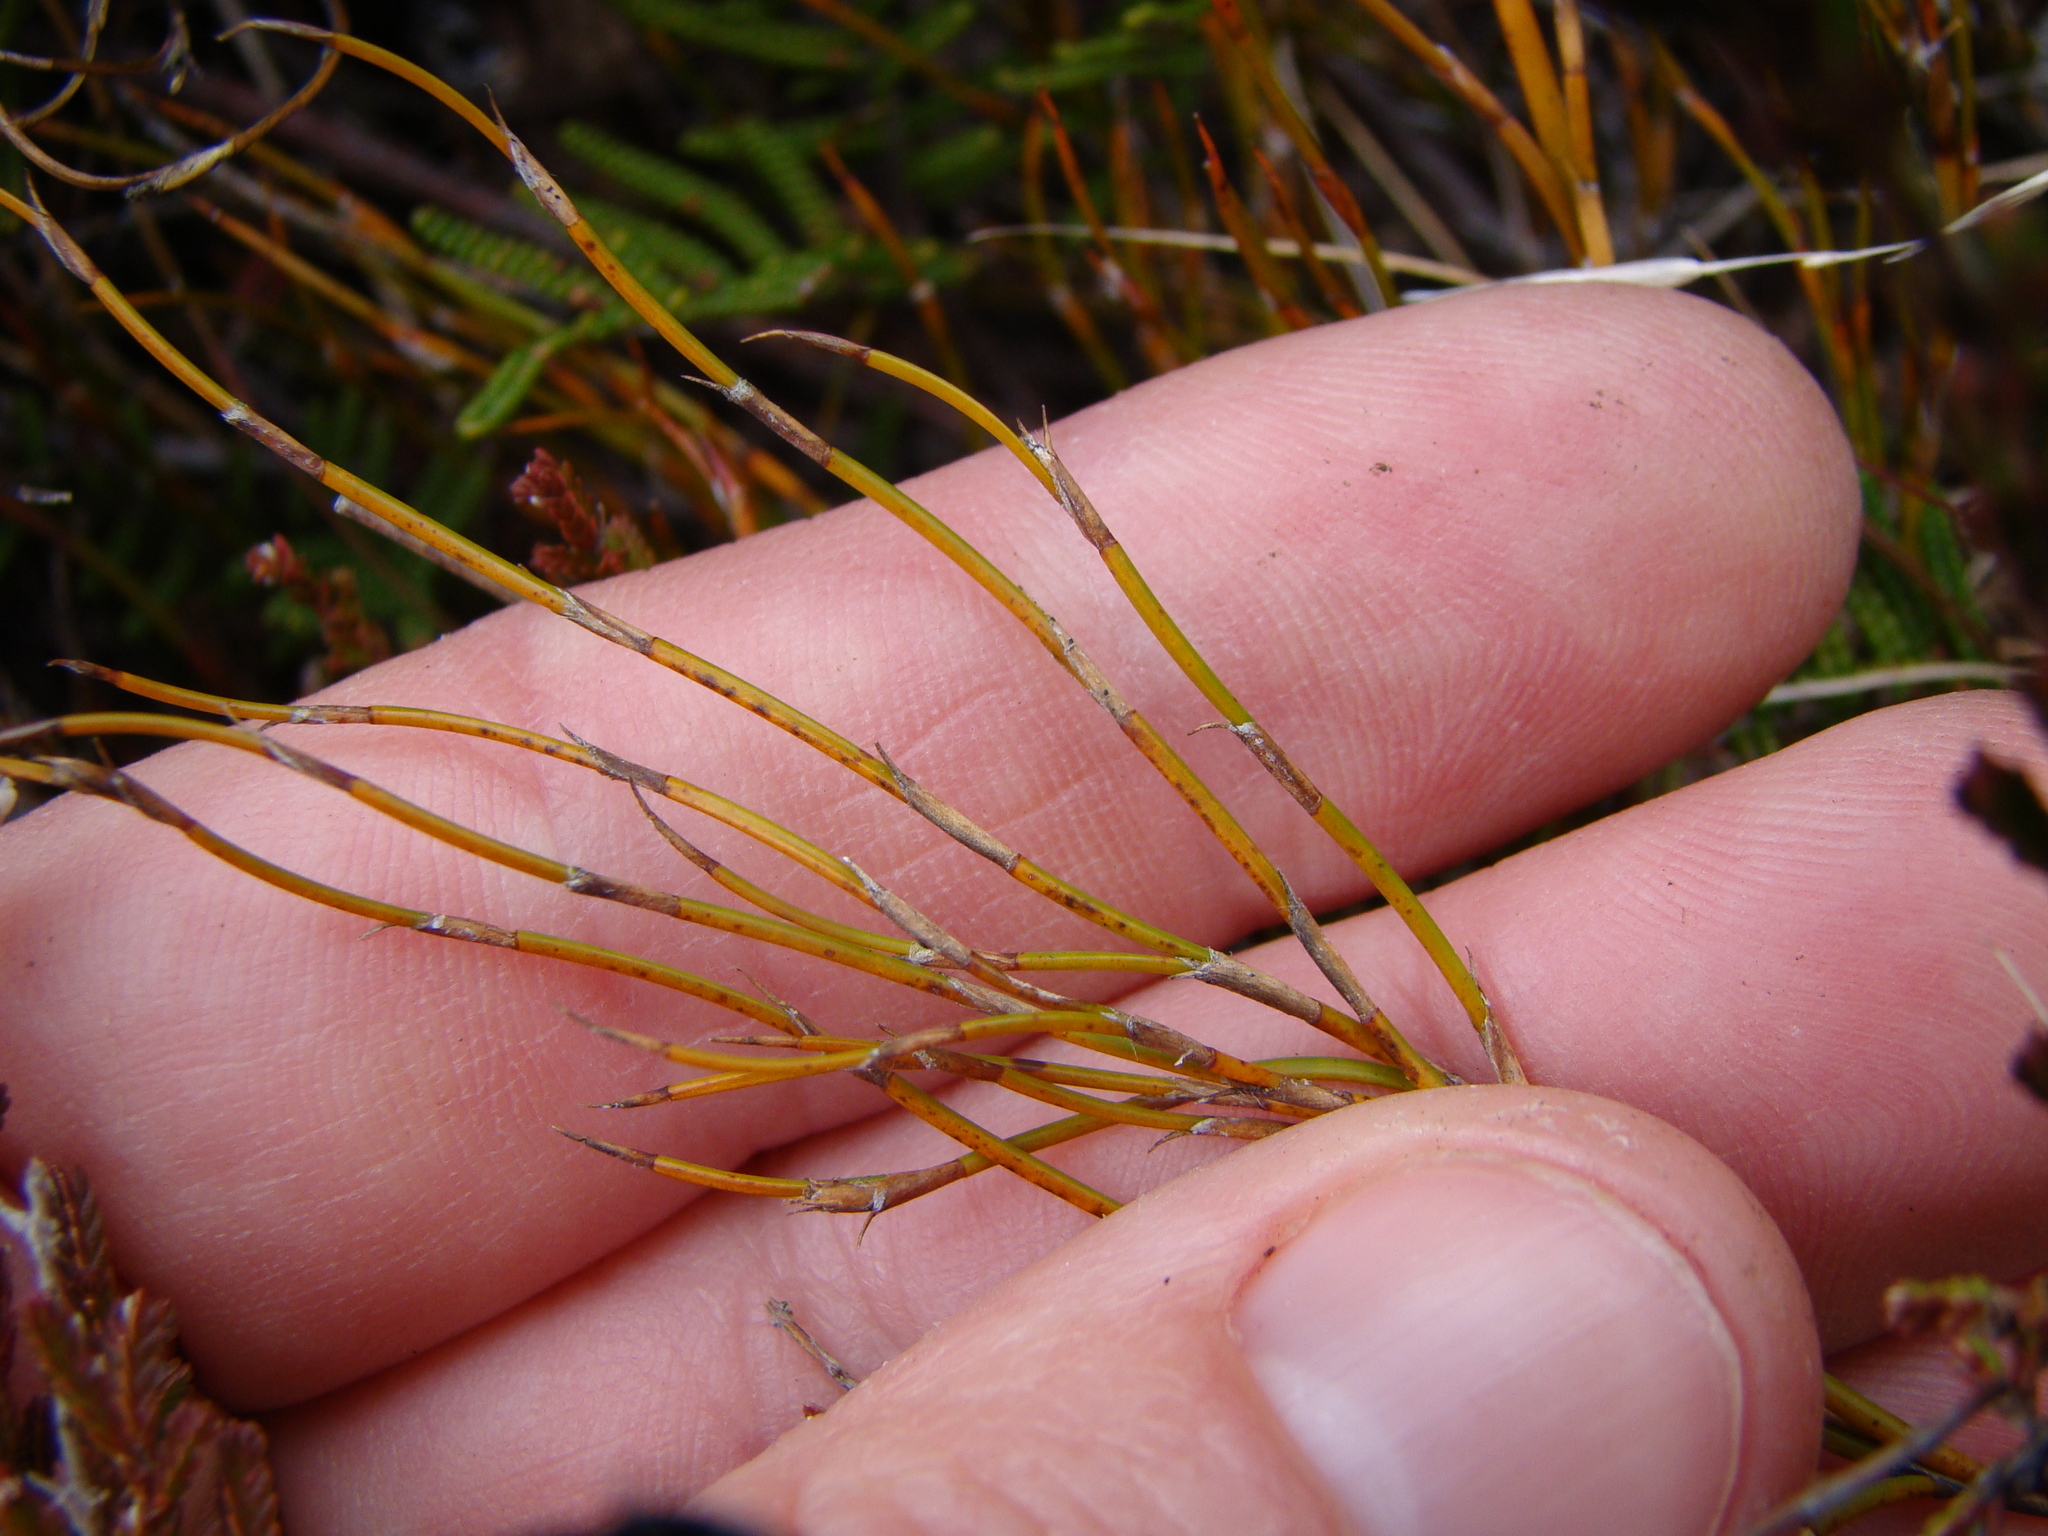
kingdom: Plantae
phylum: Tracheophyta
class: Liliopsida
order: Poales
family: Restionaceae
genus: Empodisma
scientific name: Empodisma minus
